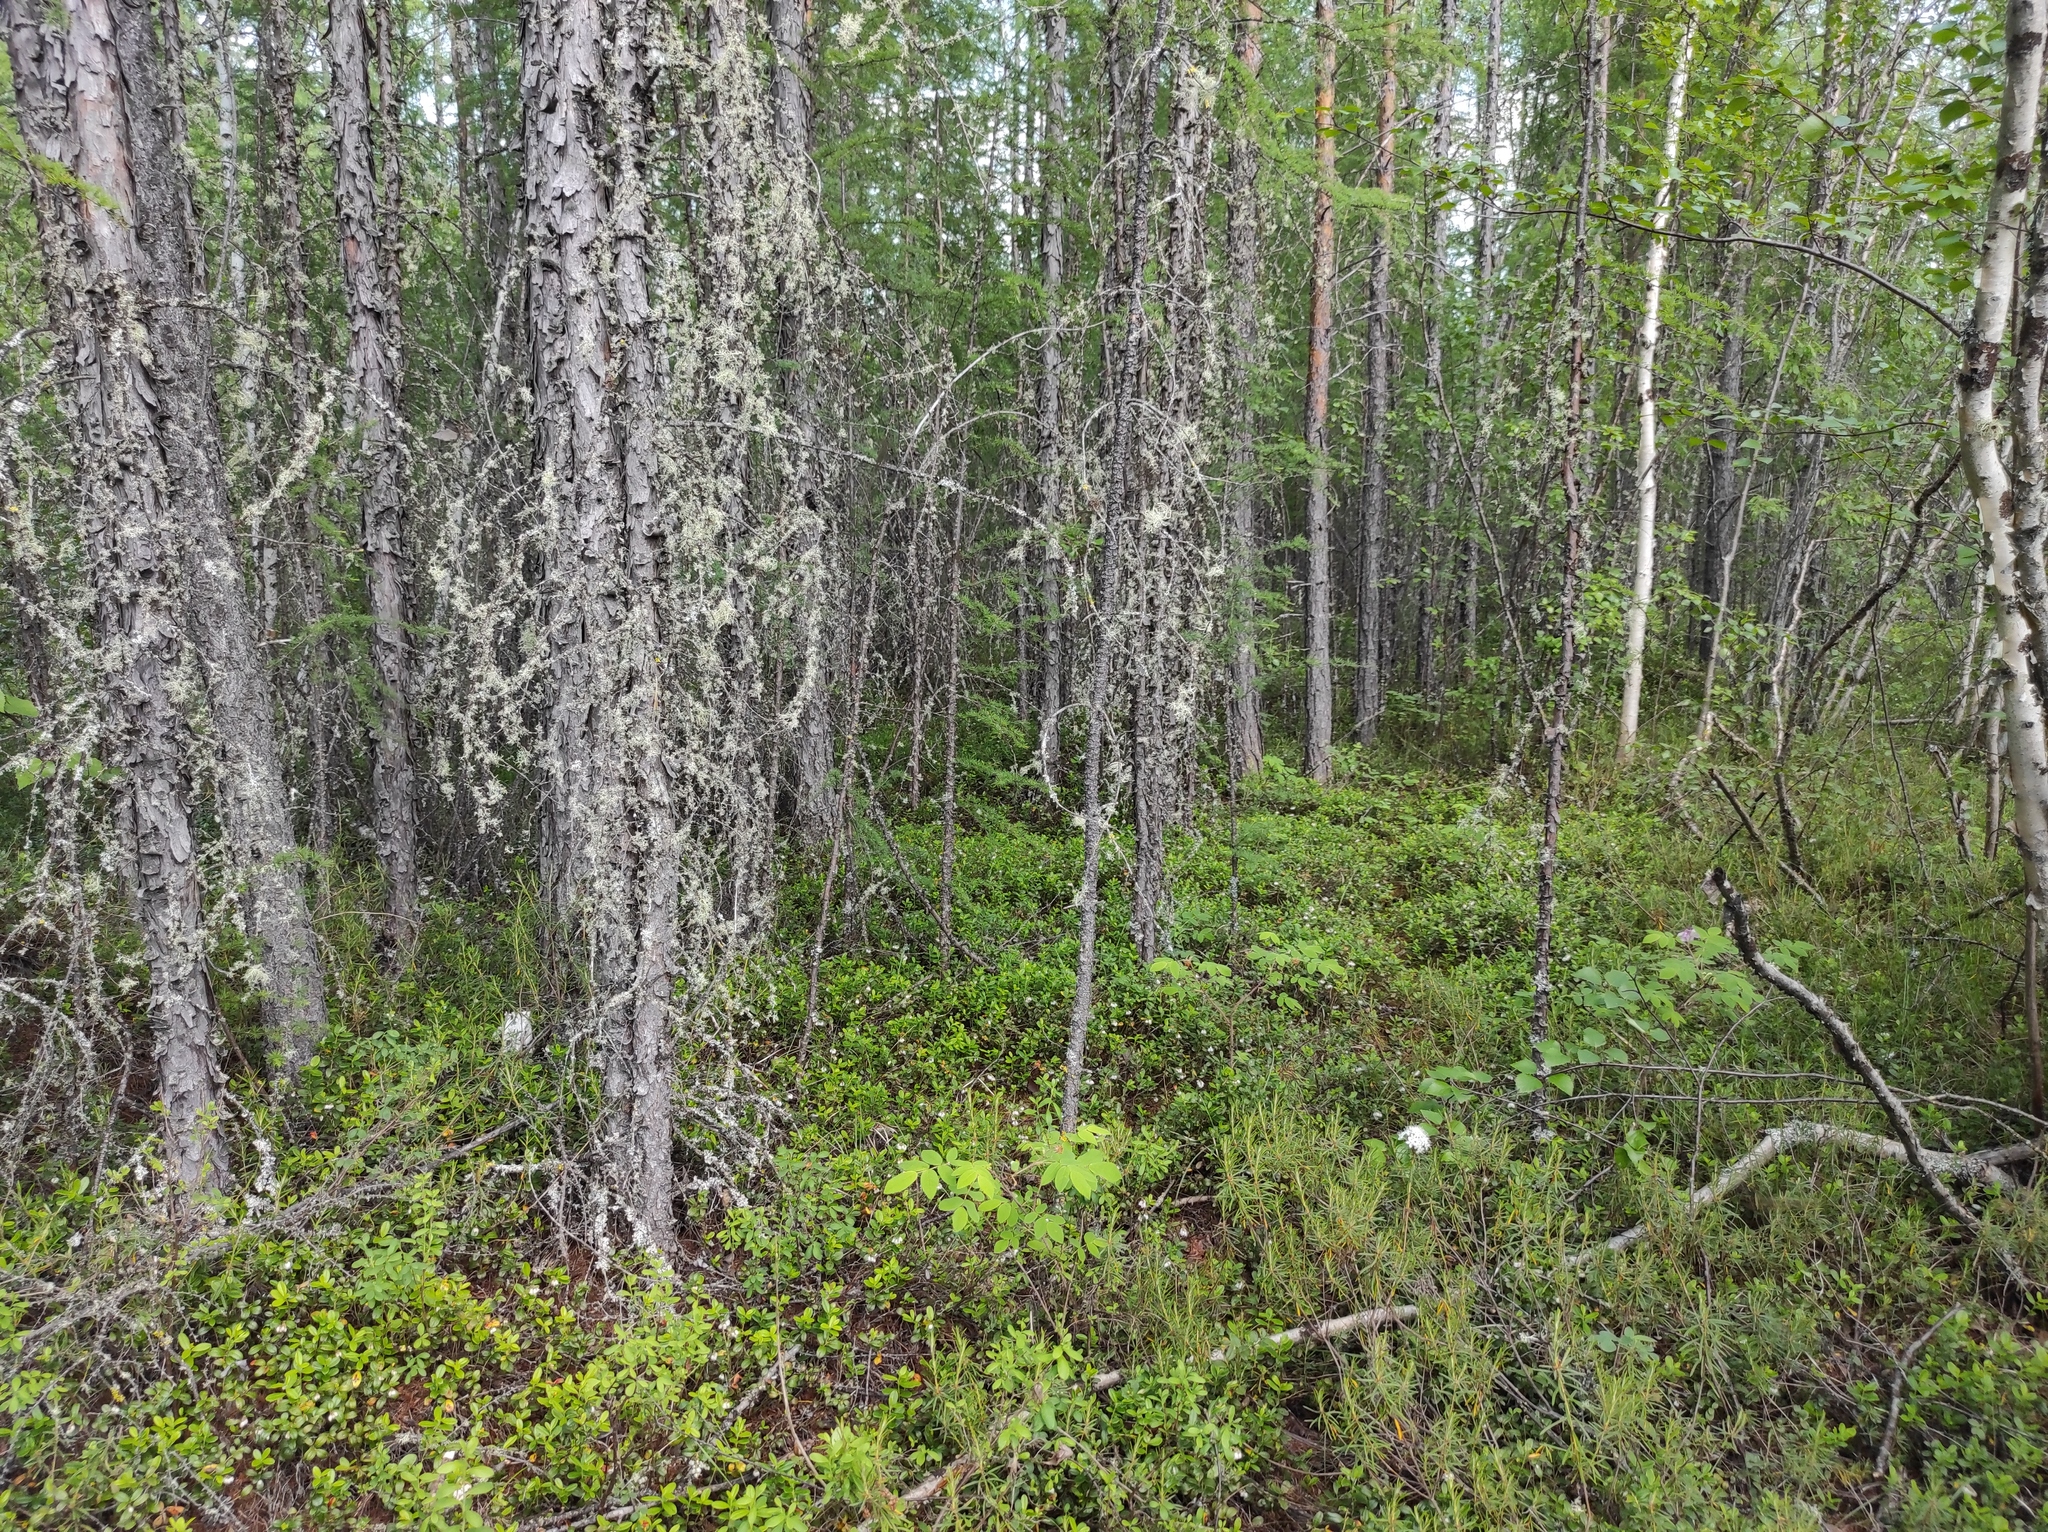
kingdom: Plantae
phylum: Tracheophyta
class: Pinopsida
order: Pinales
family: Pinaceae
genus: Larix
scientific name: Larix gmelinii
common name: Dahurian larch
